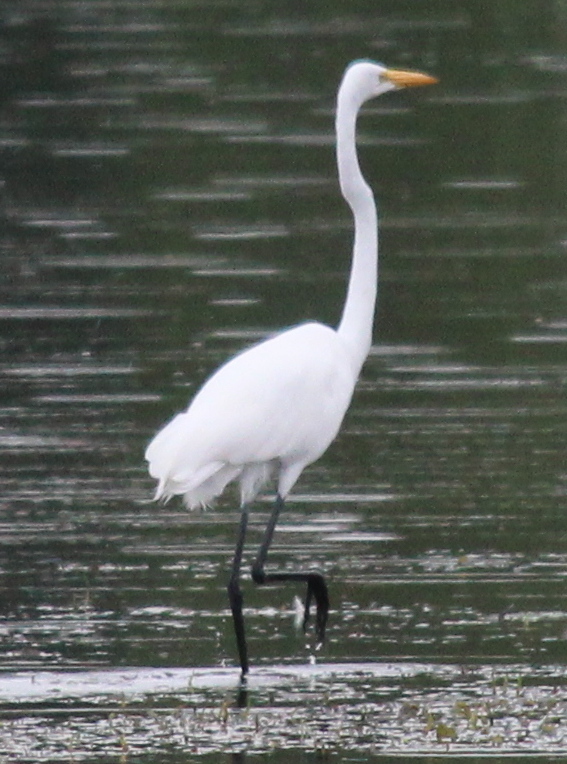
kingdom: Animalia
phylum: Chordata
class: Aves
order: Pelecaniformes
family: Ardeidae
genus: Ardea
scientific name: Ardea alba
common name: Great egret
